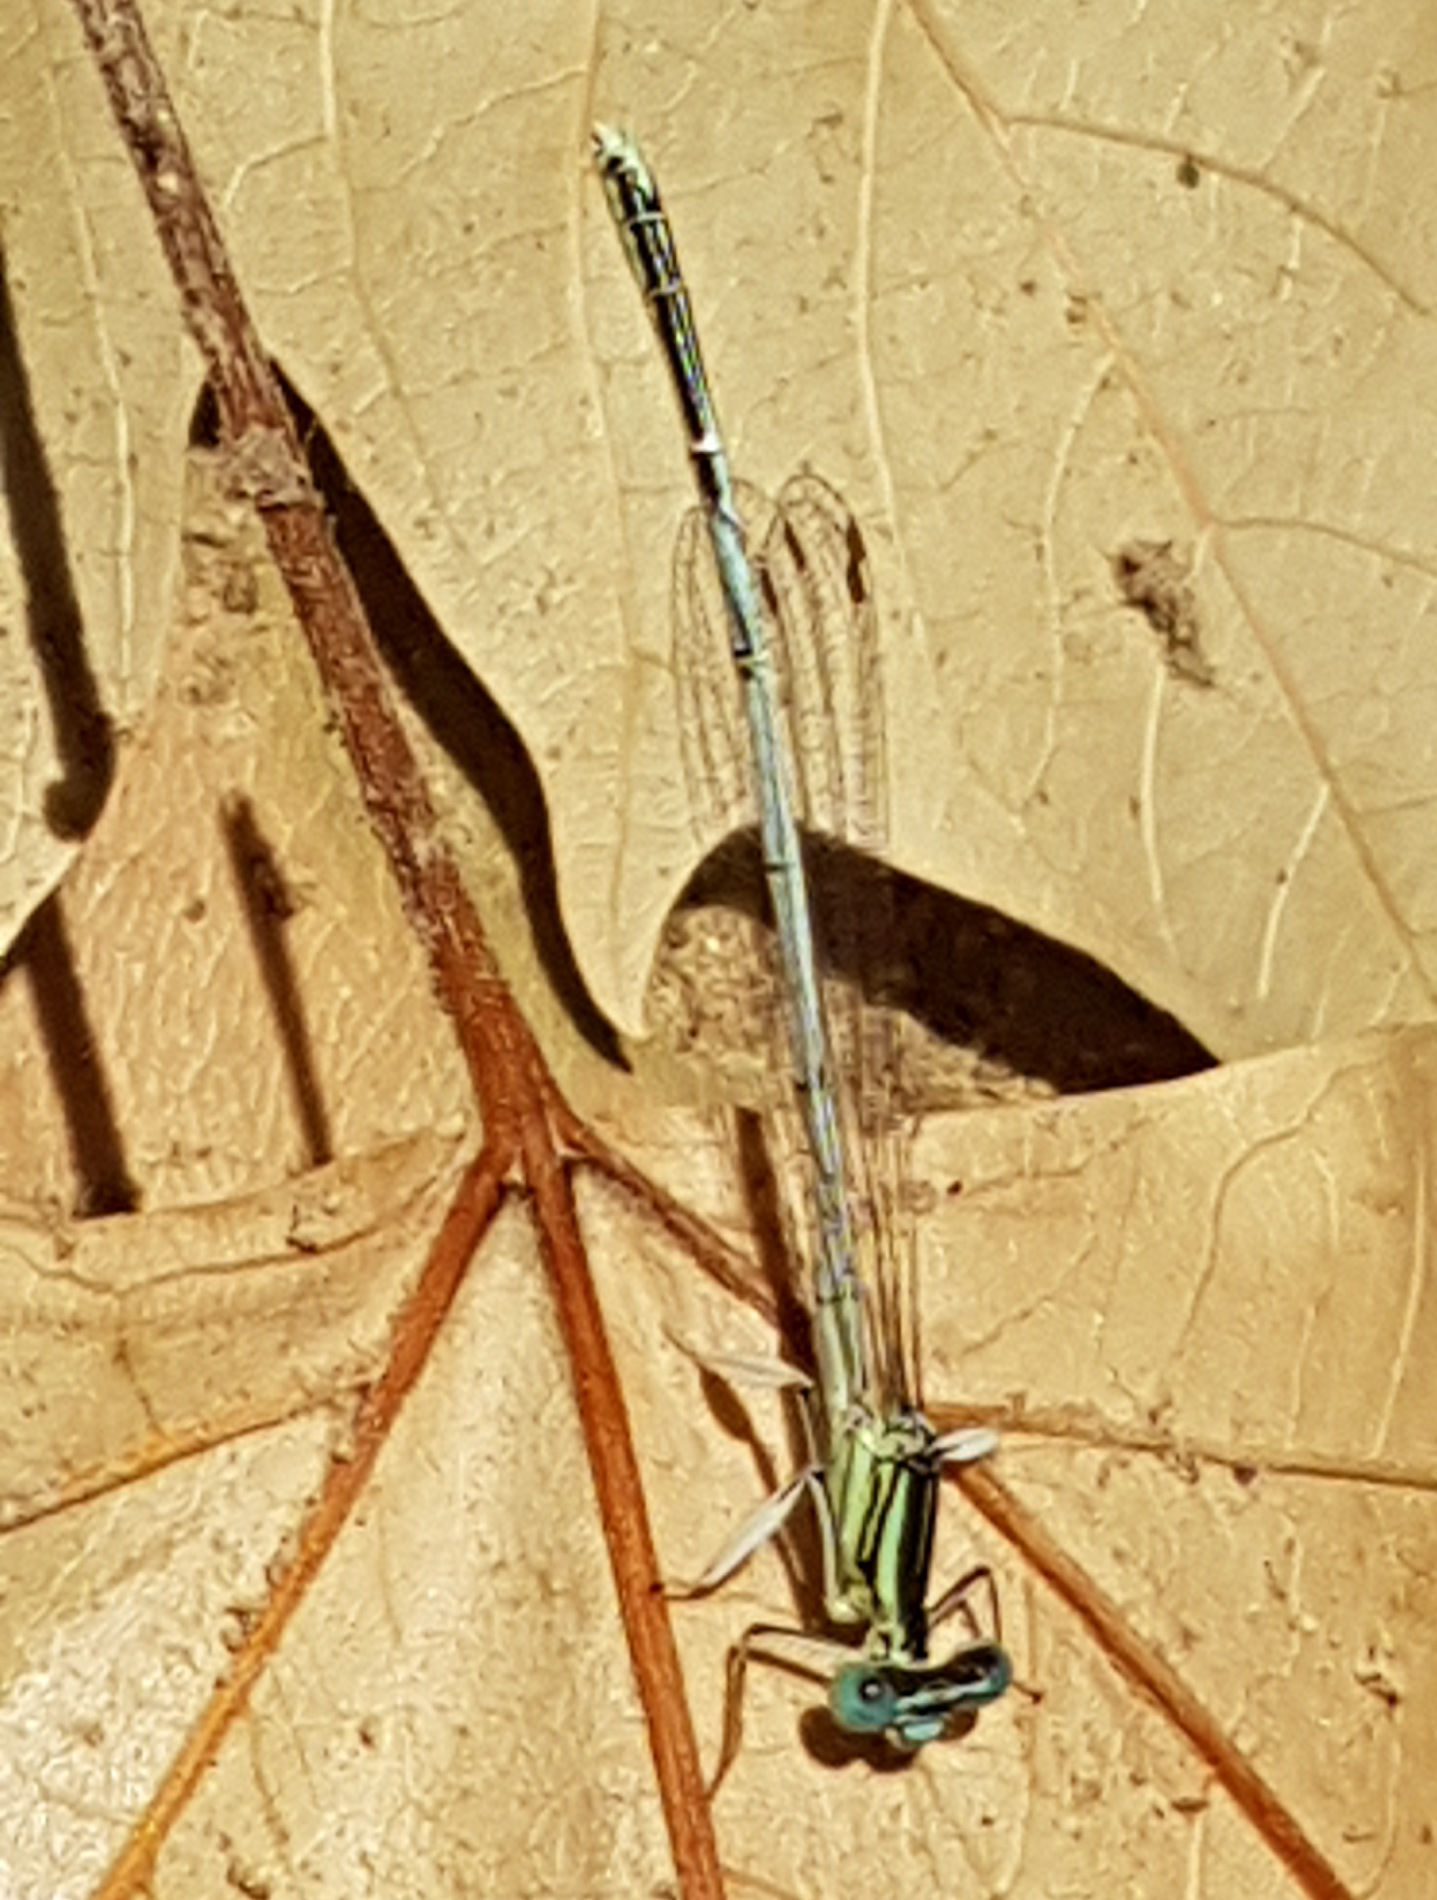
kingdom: Animalia
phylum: Arthropoda
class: Insecta
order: Odonata
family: Platycnemididae
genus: Platycnemis
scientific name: Platycnemis latipes
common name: White featherleg
